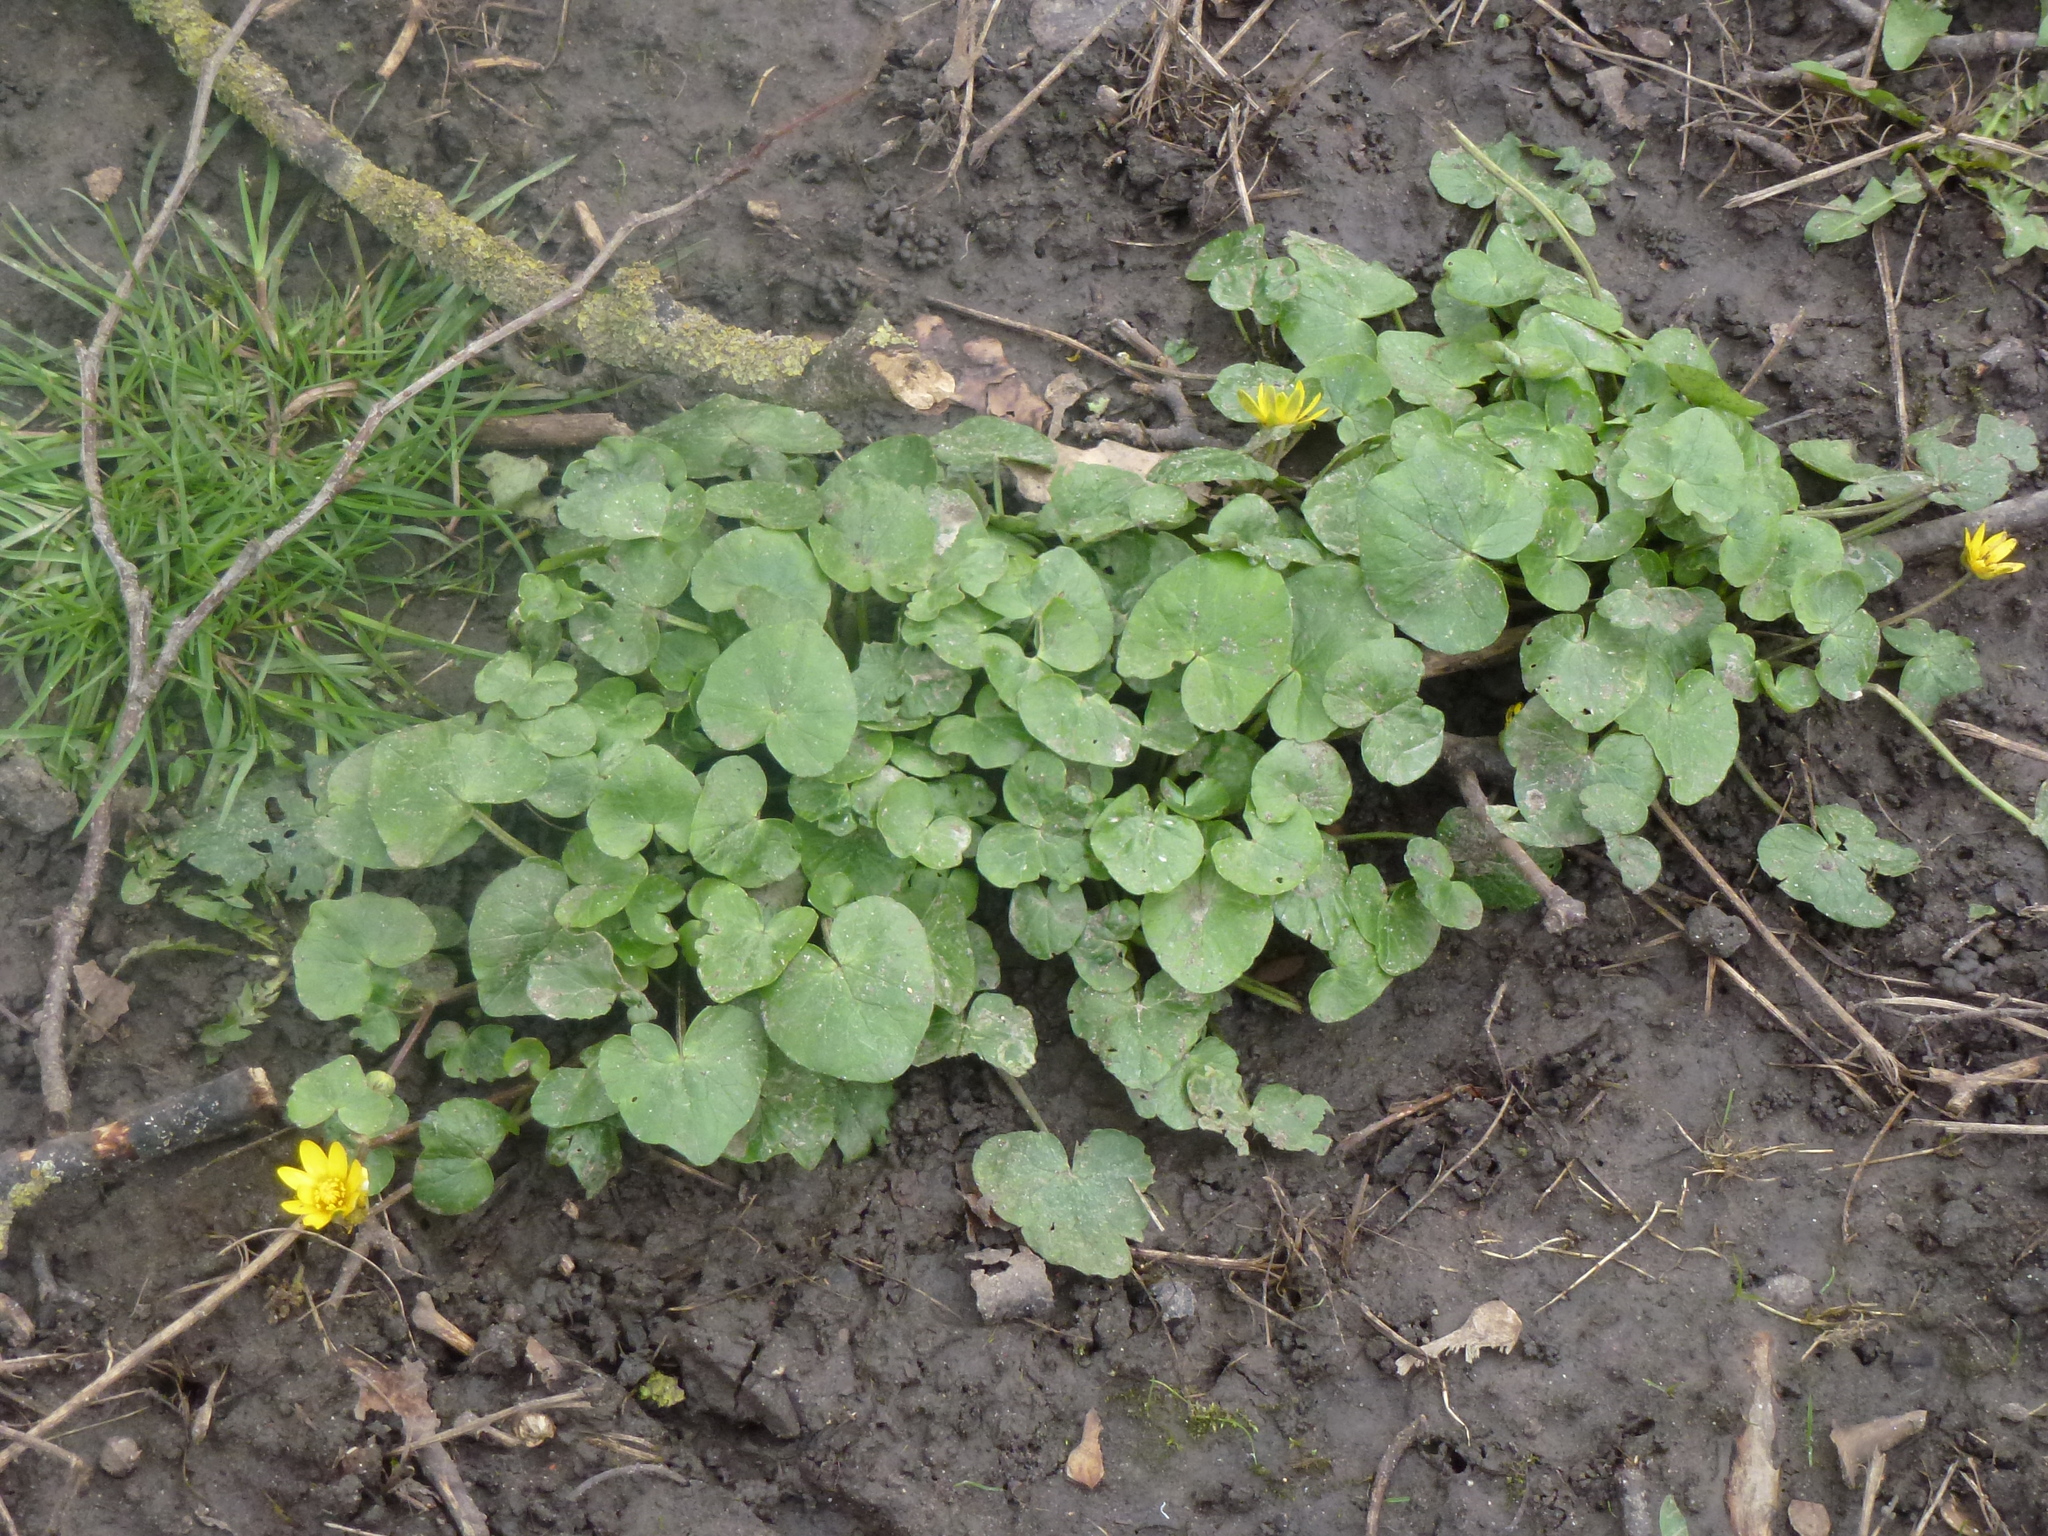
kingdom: Plantae
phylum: Tracheophyta
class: Magnoliopsida
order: Ranunculales
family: Ranunculaceae
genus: Ficaria
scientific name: Ficaria verna
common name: Lesser celandine
